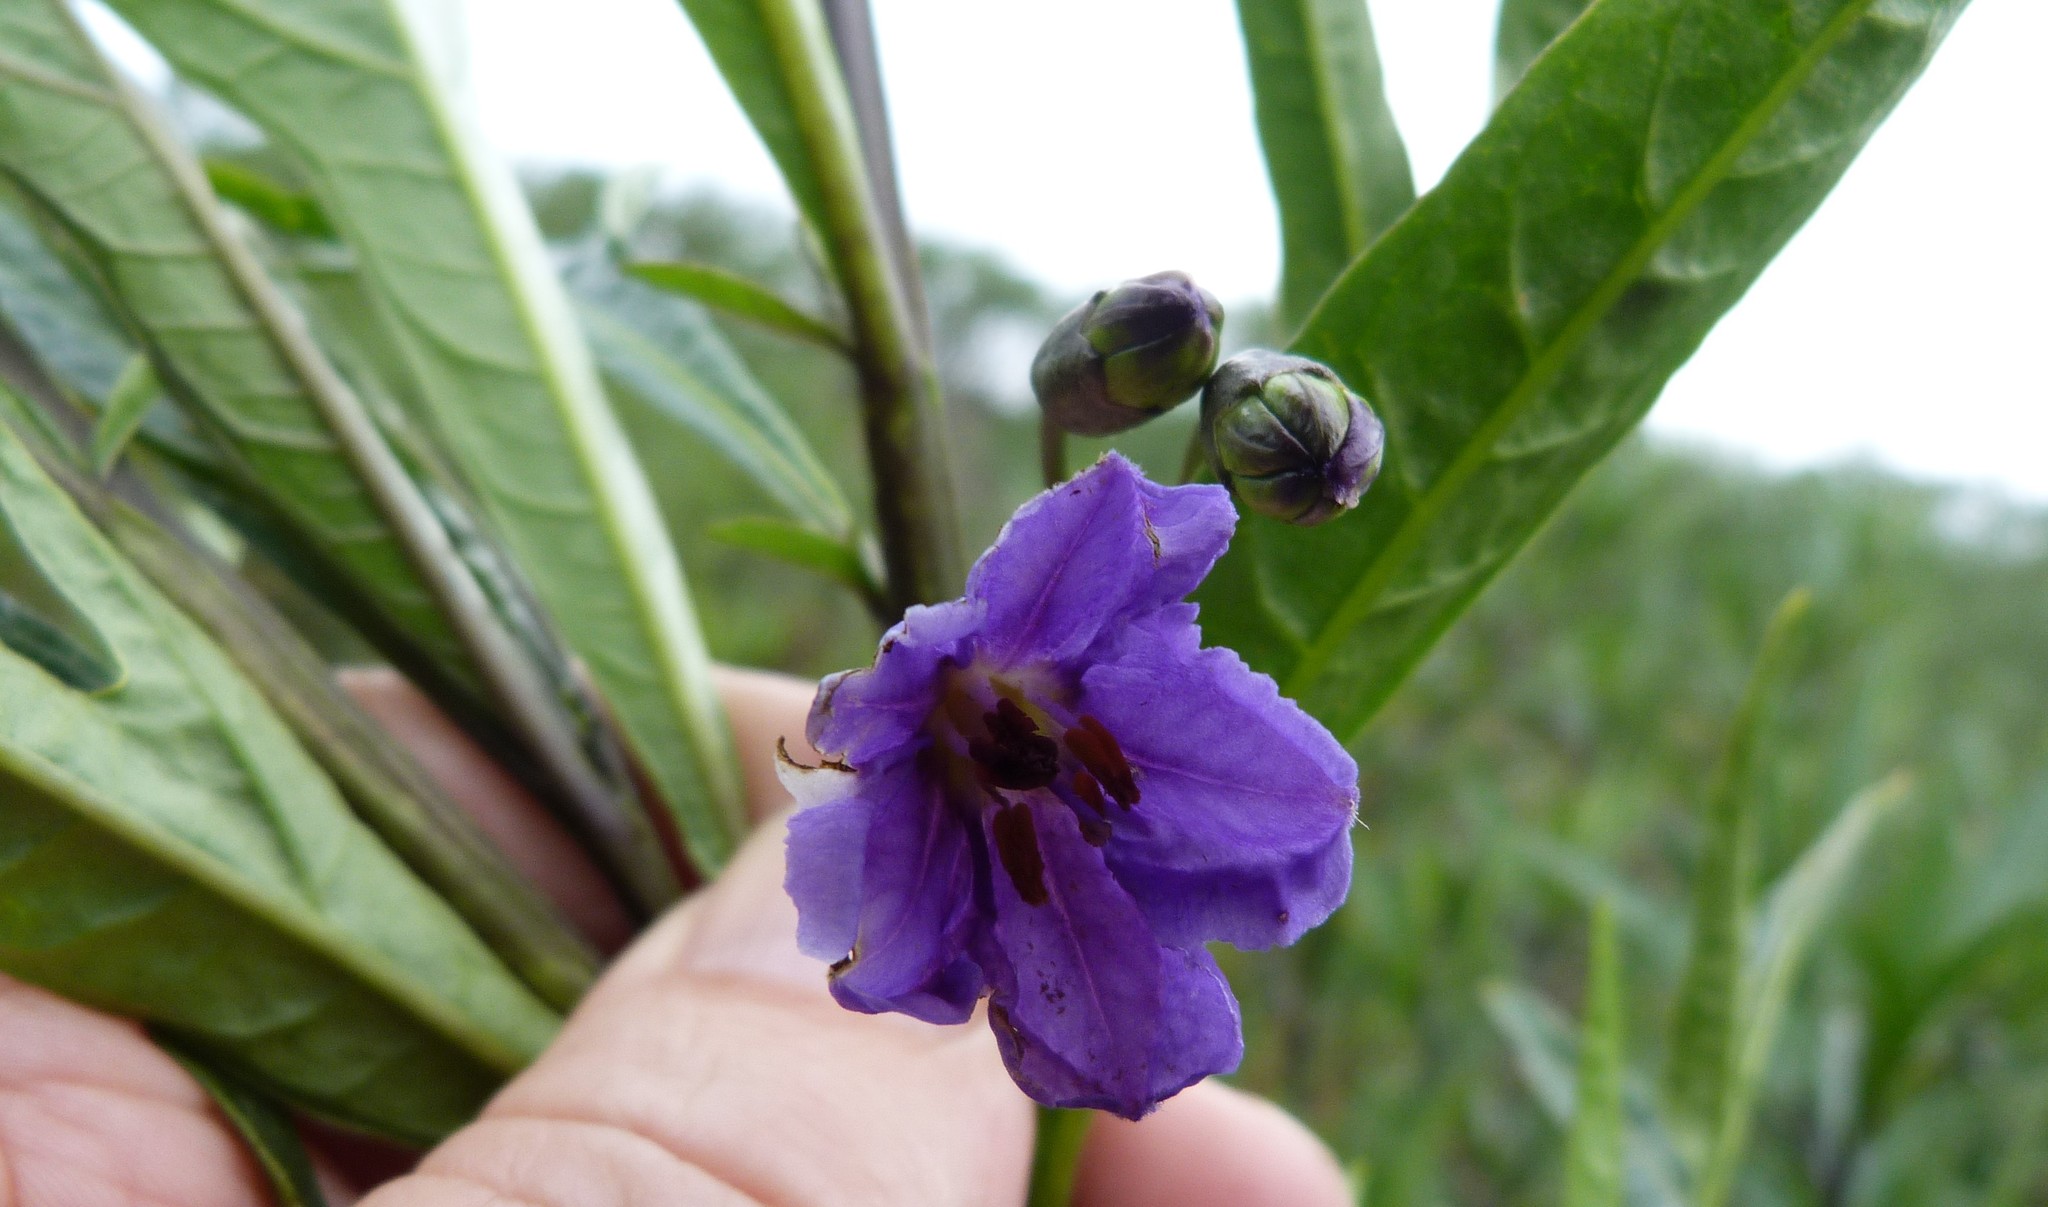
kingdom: Plantae
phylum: Tracheophyta
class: Magnoliopsida
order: Solanales
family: Solanaceae
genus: Solanum
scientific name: Solanum laciniatum
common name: Kangaroo-apple
